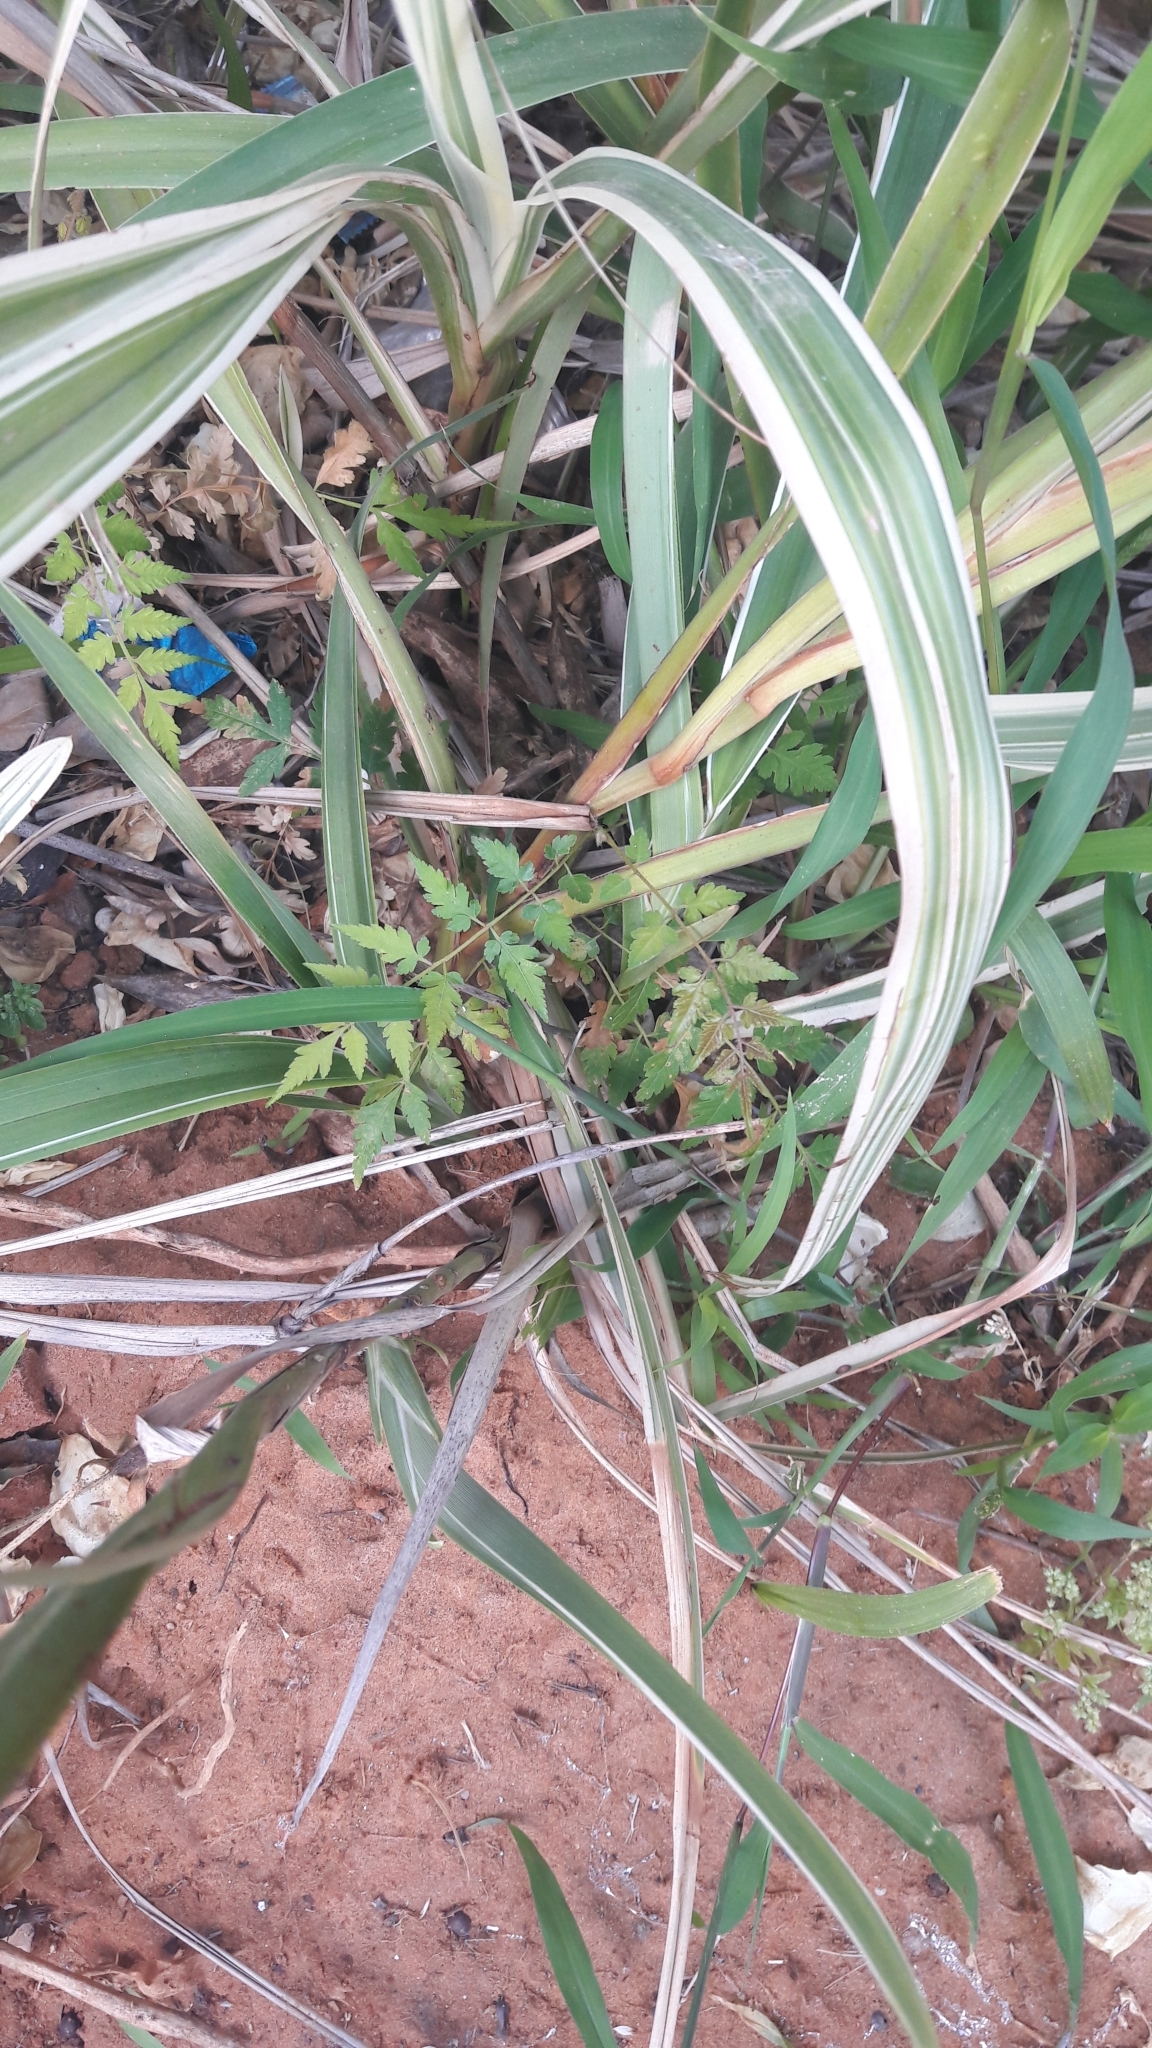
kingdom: Plantae
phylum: Tracheophyta
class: Magnoliopsida
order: Sapindales
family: Meliaceae
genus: Melia
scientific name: Melia azedarach
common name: Chinaberrytree
